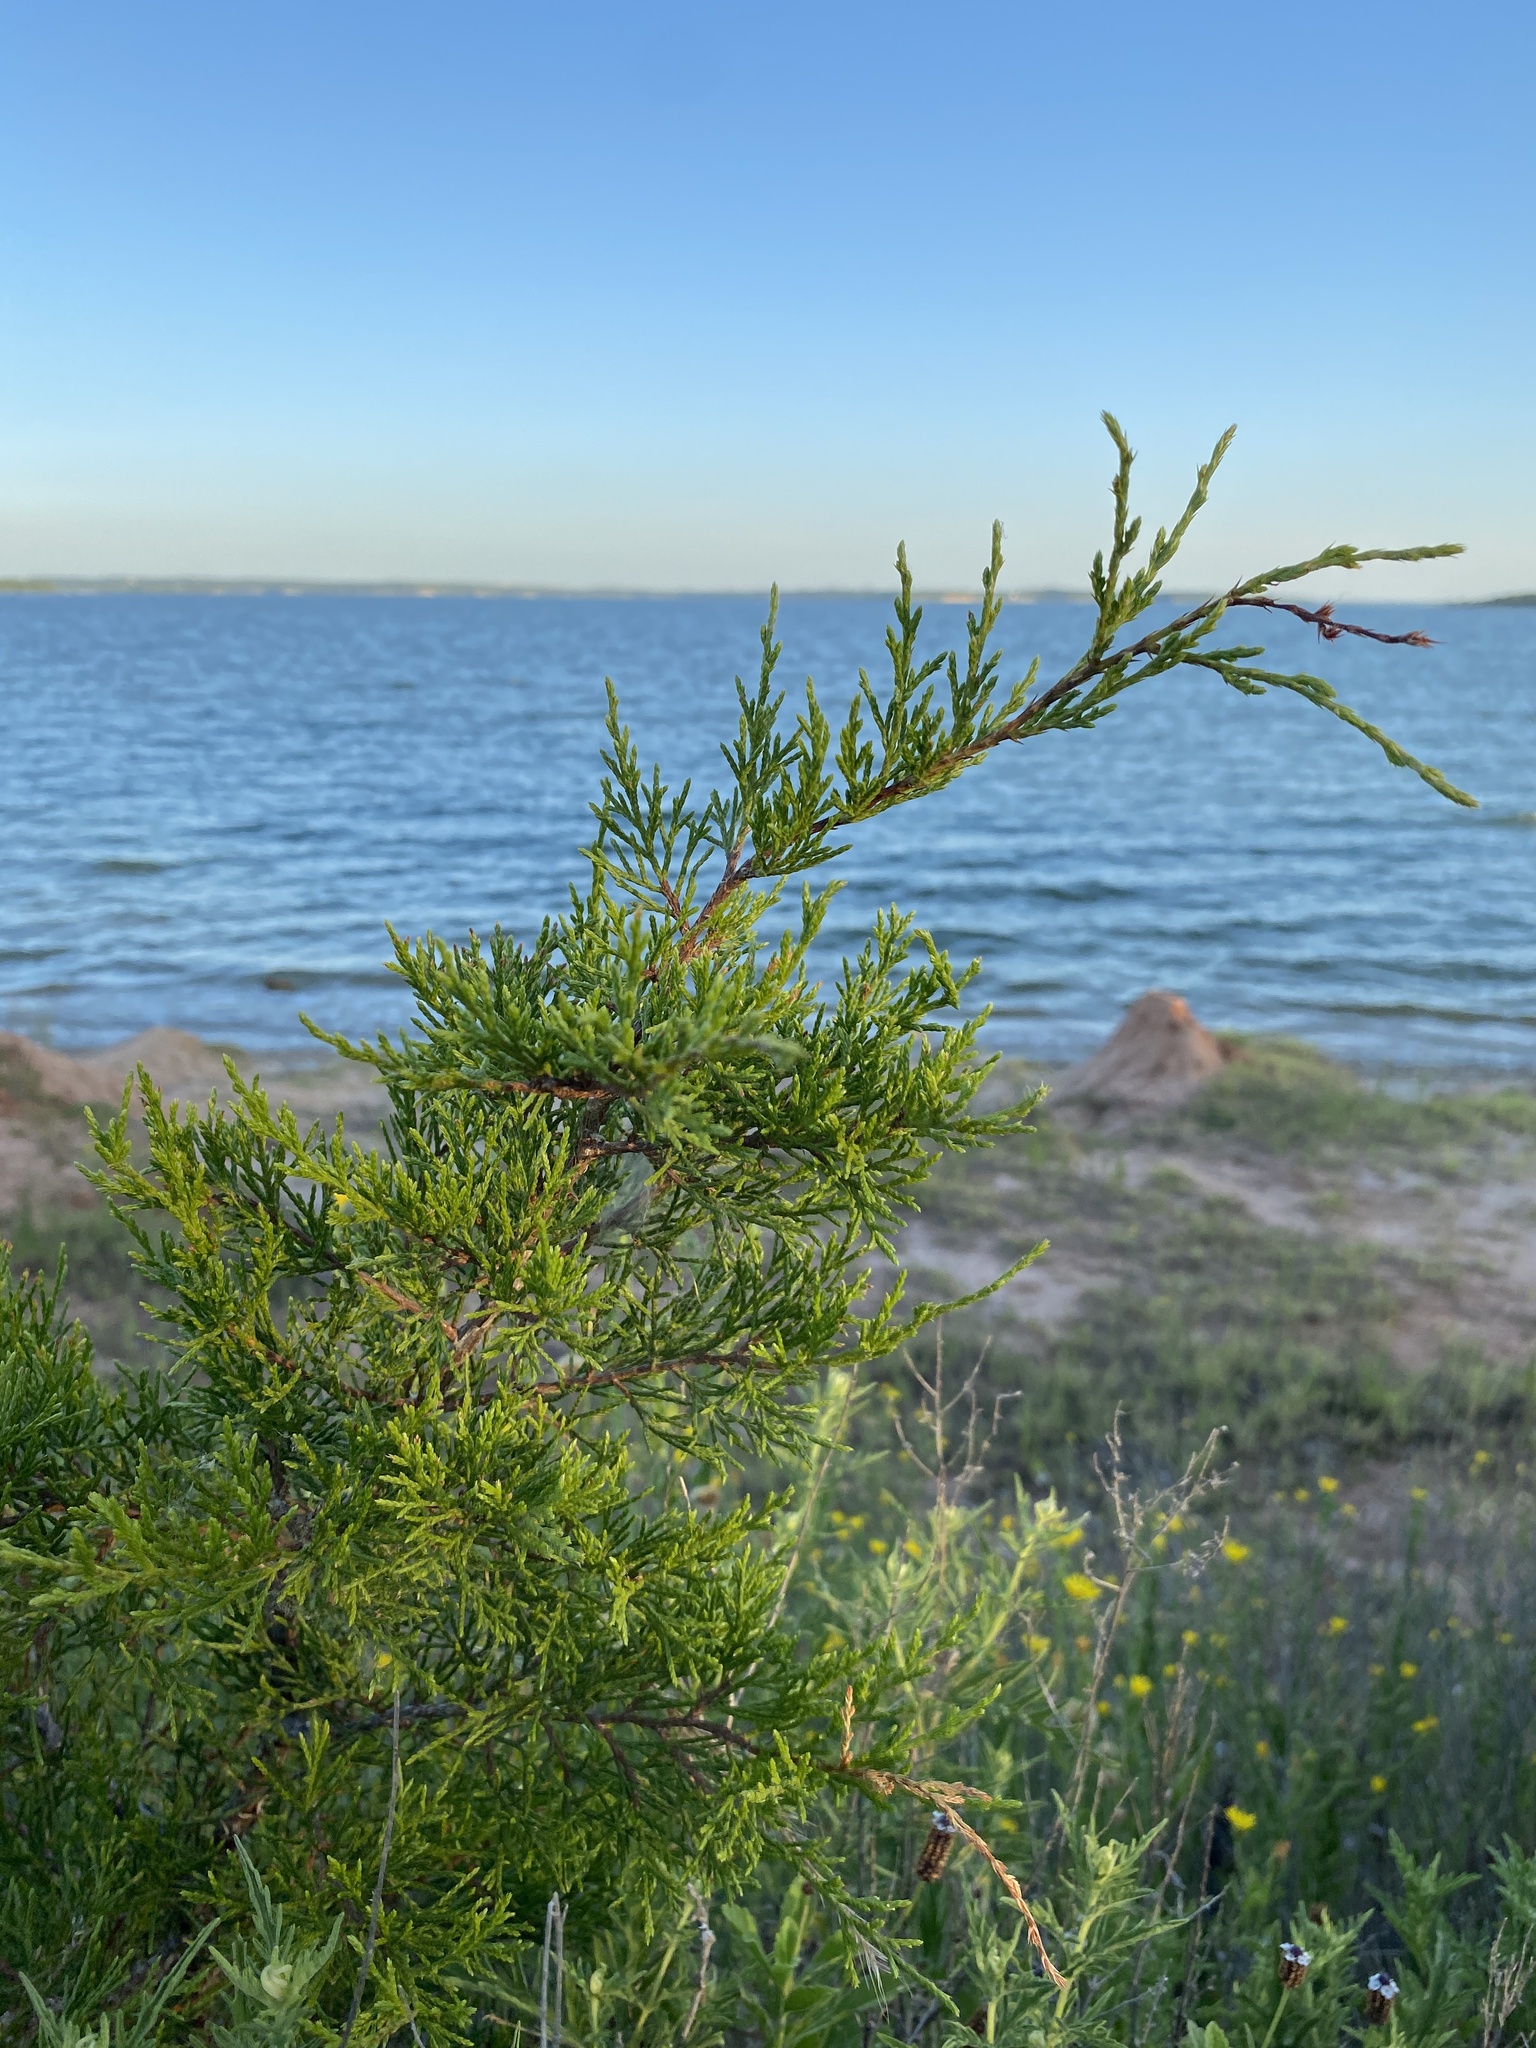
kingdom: Plantae
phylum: Tracheophyta
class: Pinopsida
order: Pinales
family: Cupressaceae
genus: Juniperus
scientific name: Juniperus virginiana
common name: Red juniper
